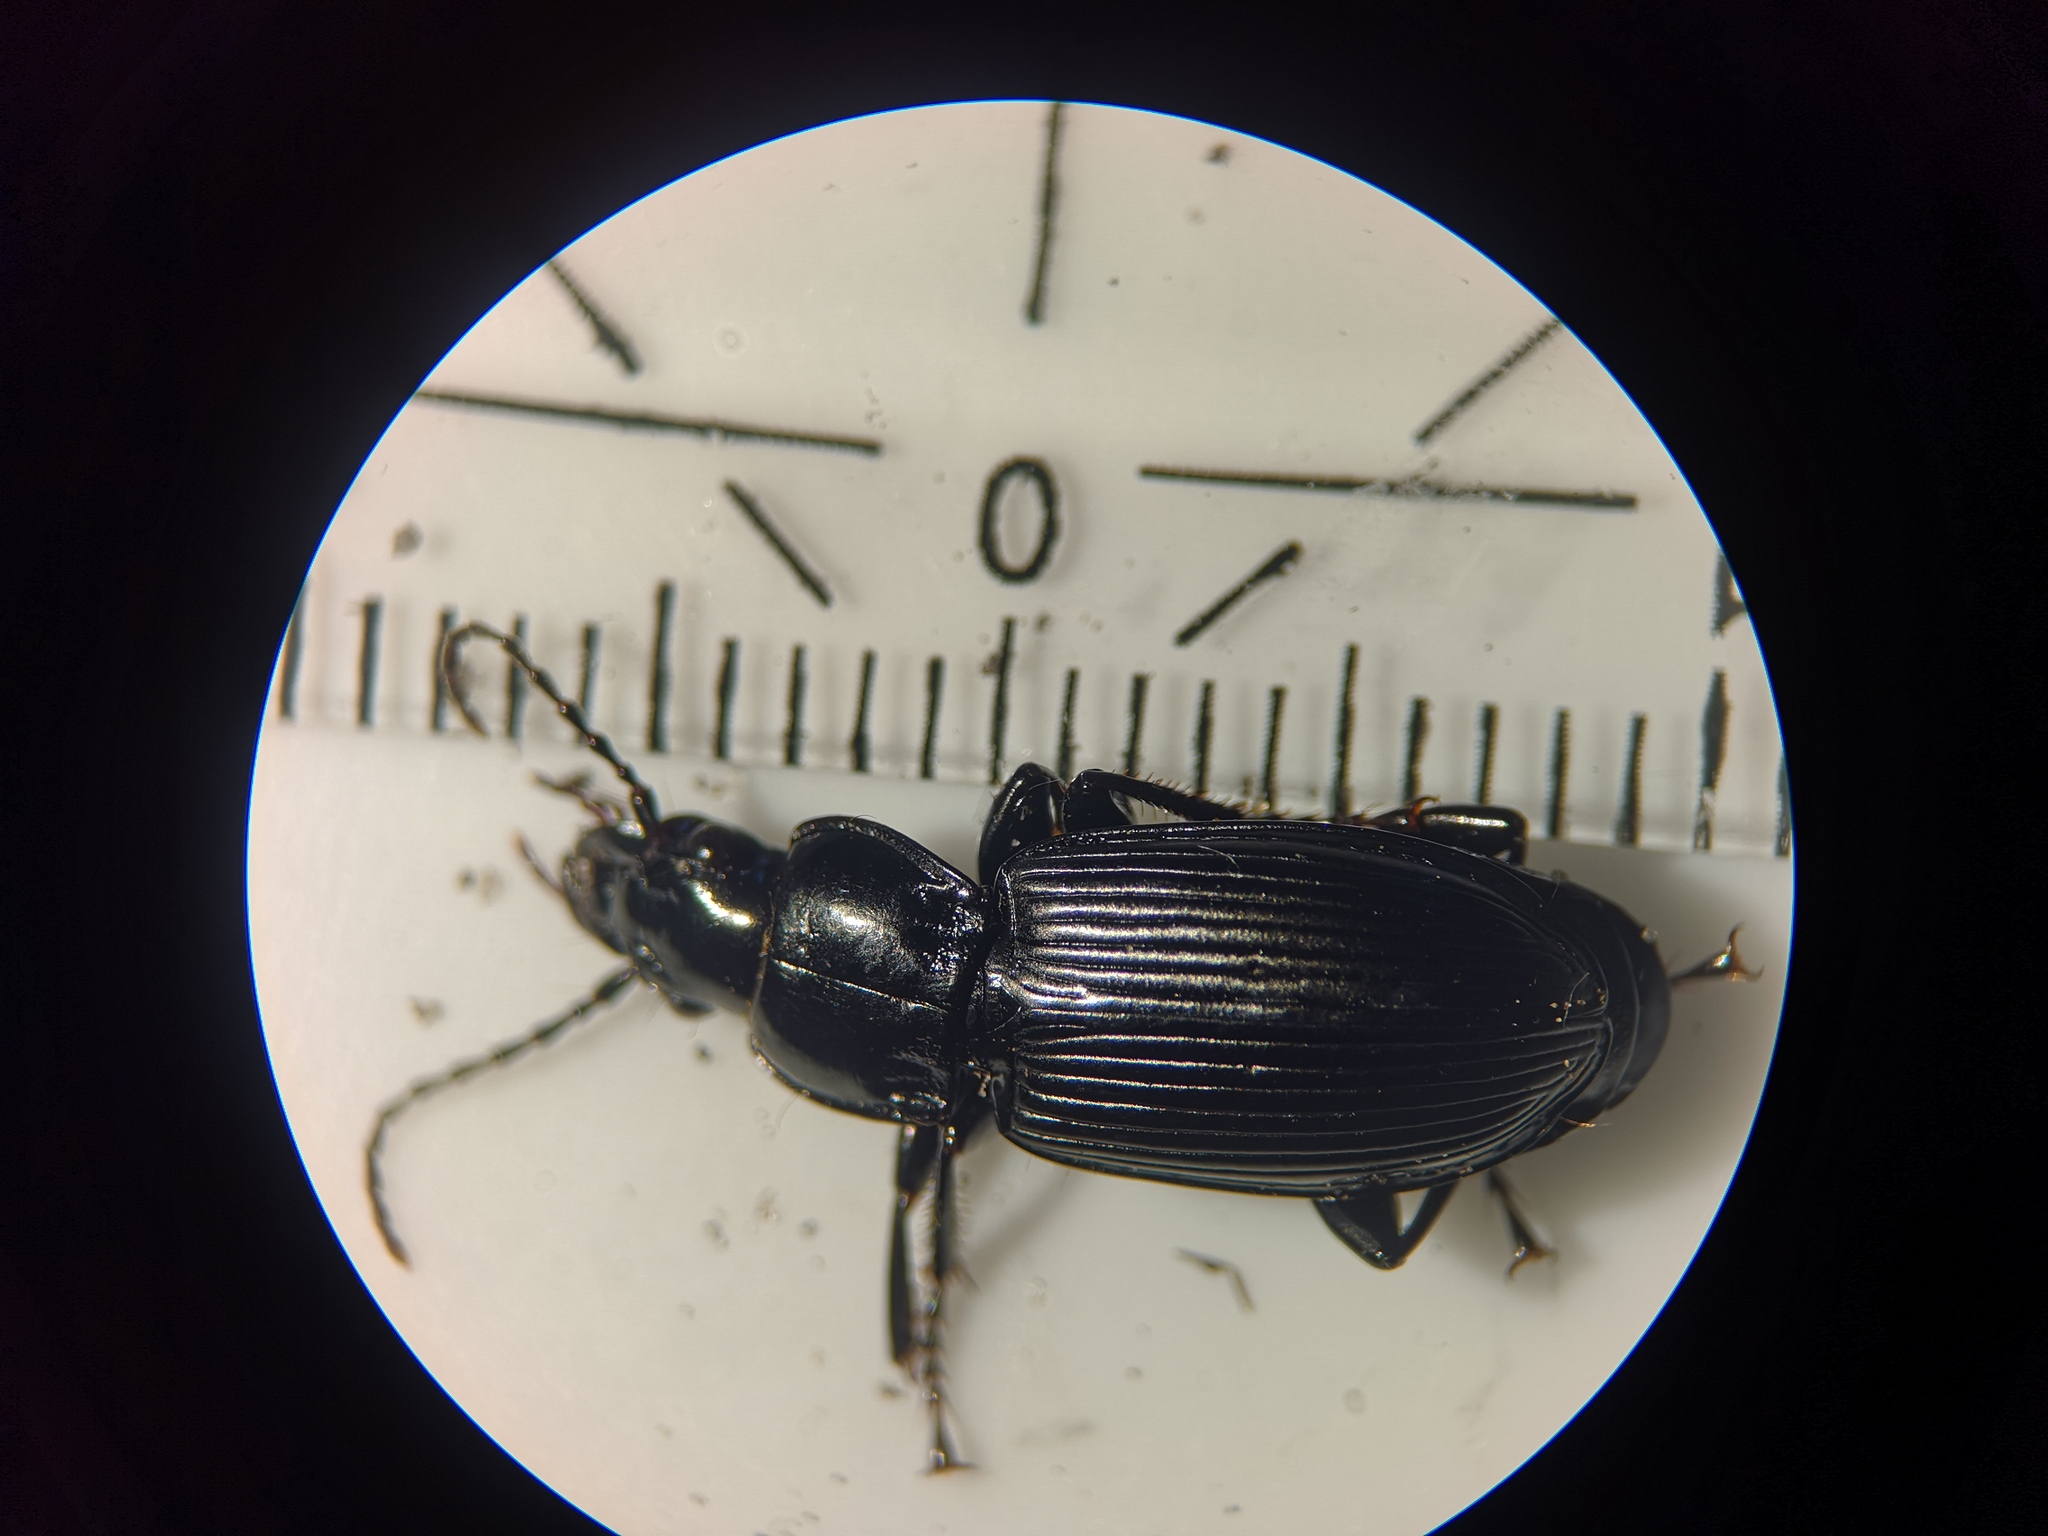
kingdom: Animalia
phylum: Arthropoda
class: Insecta
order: Coleoptera
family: Carabidae
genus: Pterostichus
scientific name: Pterostichus melanarius
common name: European dark harp ground beetle
